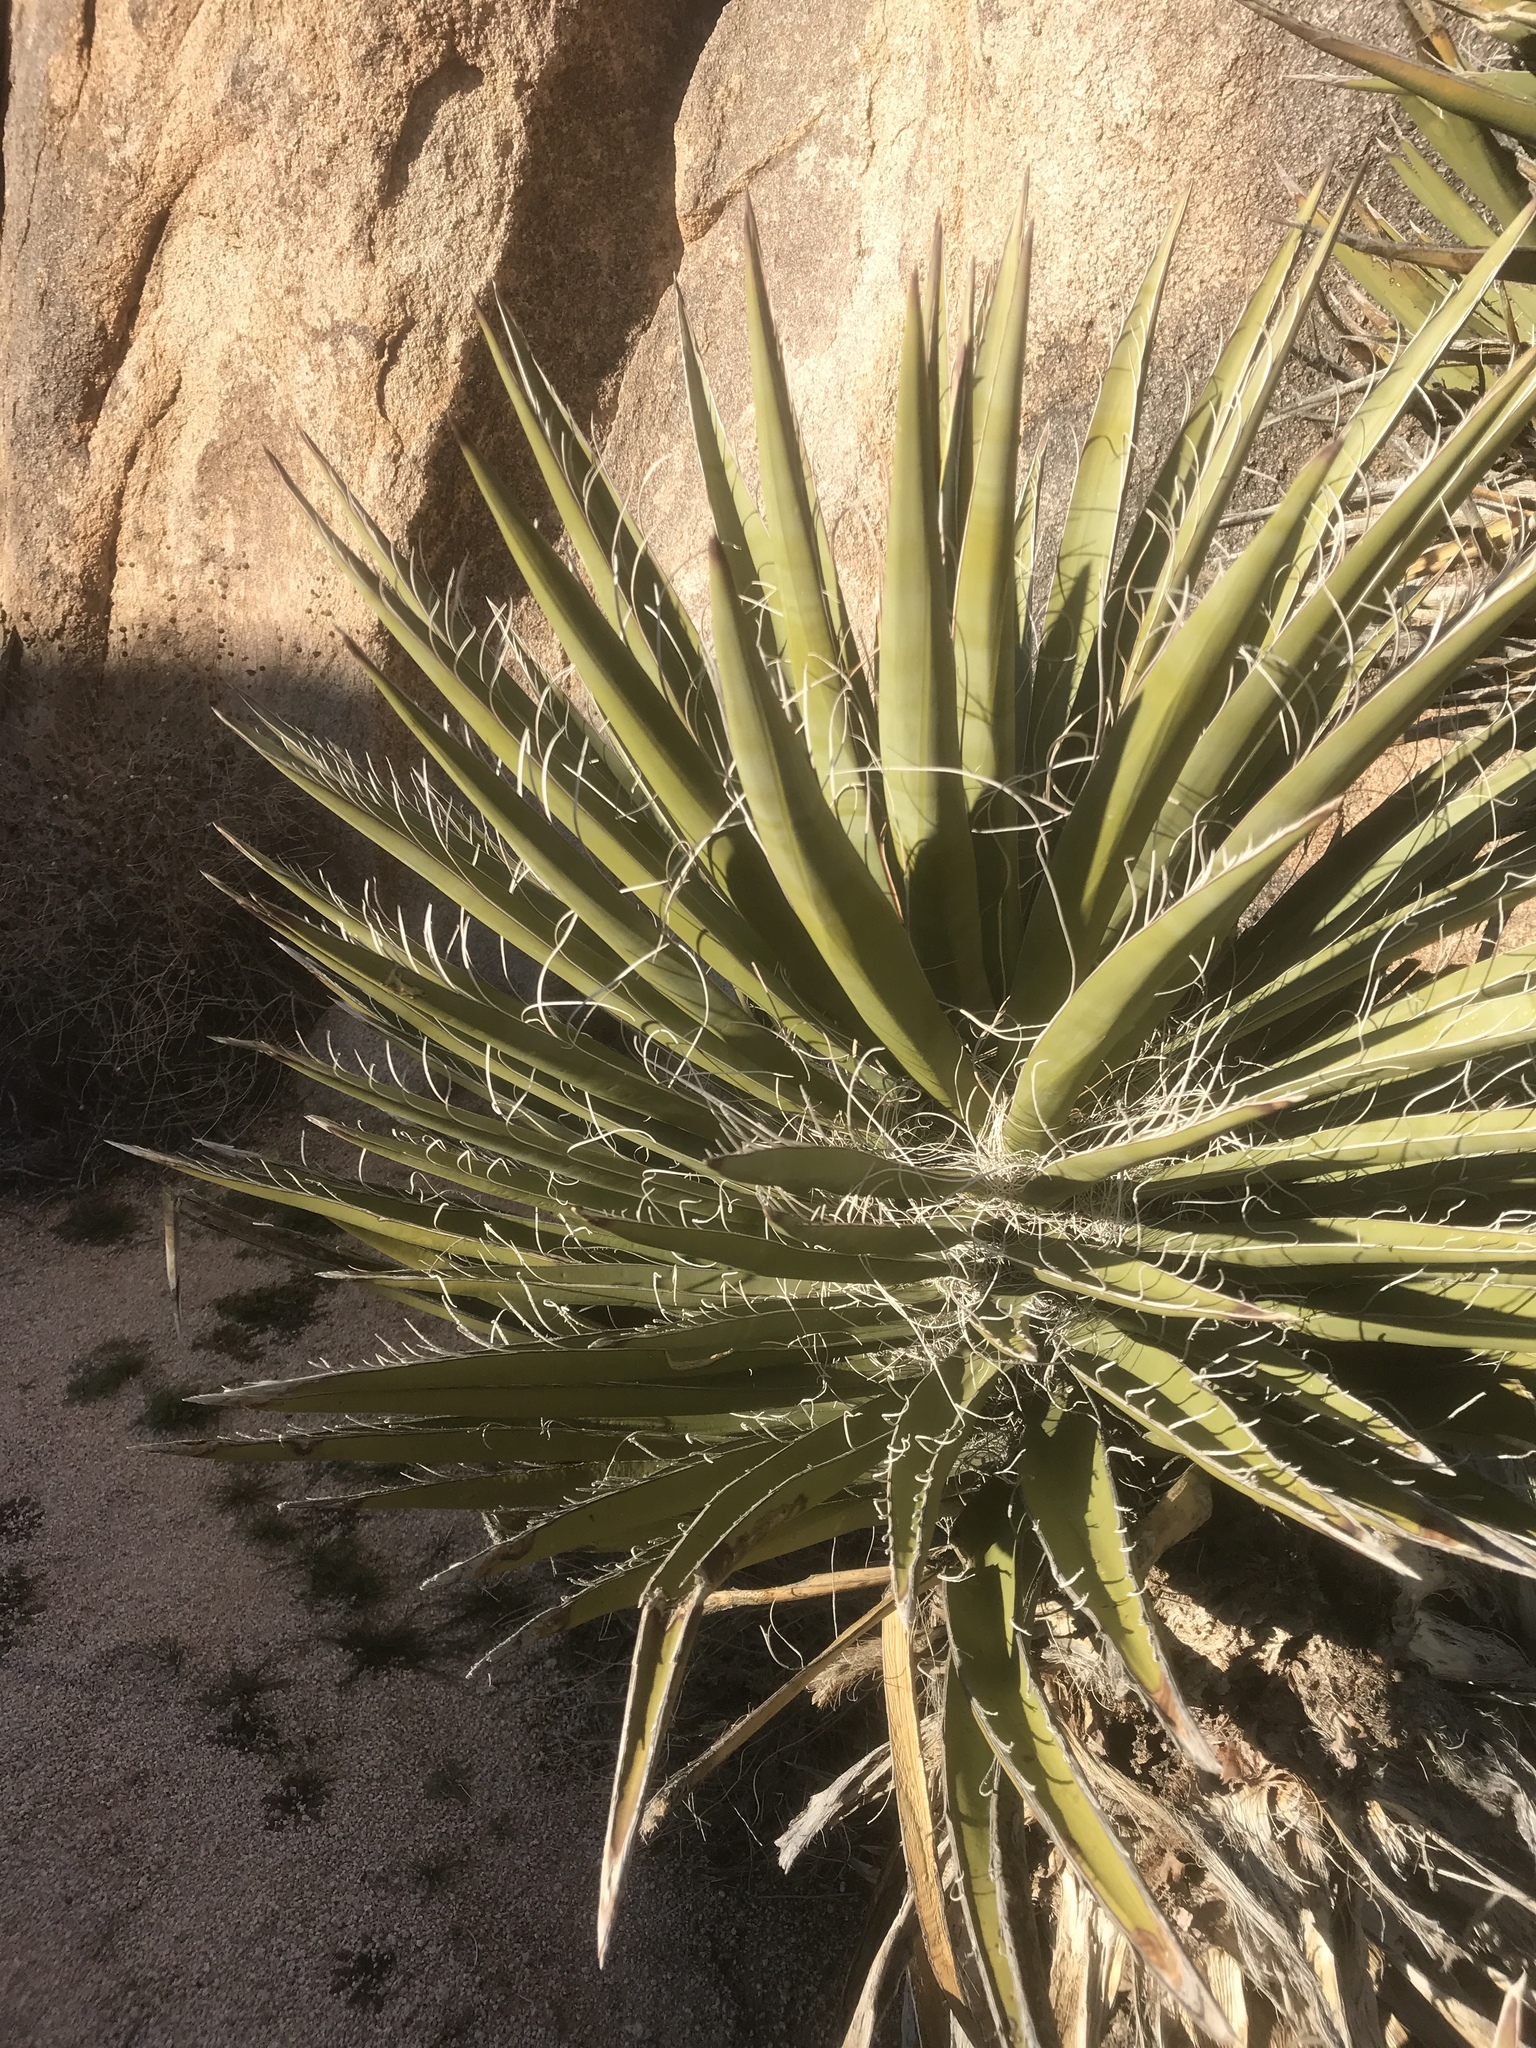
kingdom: Plantae
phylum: Tracheophyta
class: Liliopsida
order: Asparagales
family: Asparagaceae
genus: Yucca
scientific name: Yucca schidigera
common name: Mojave yucca
